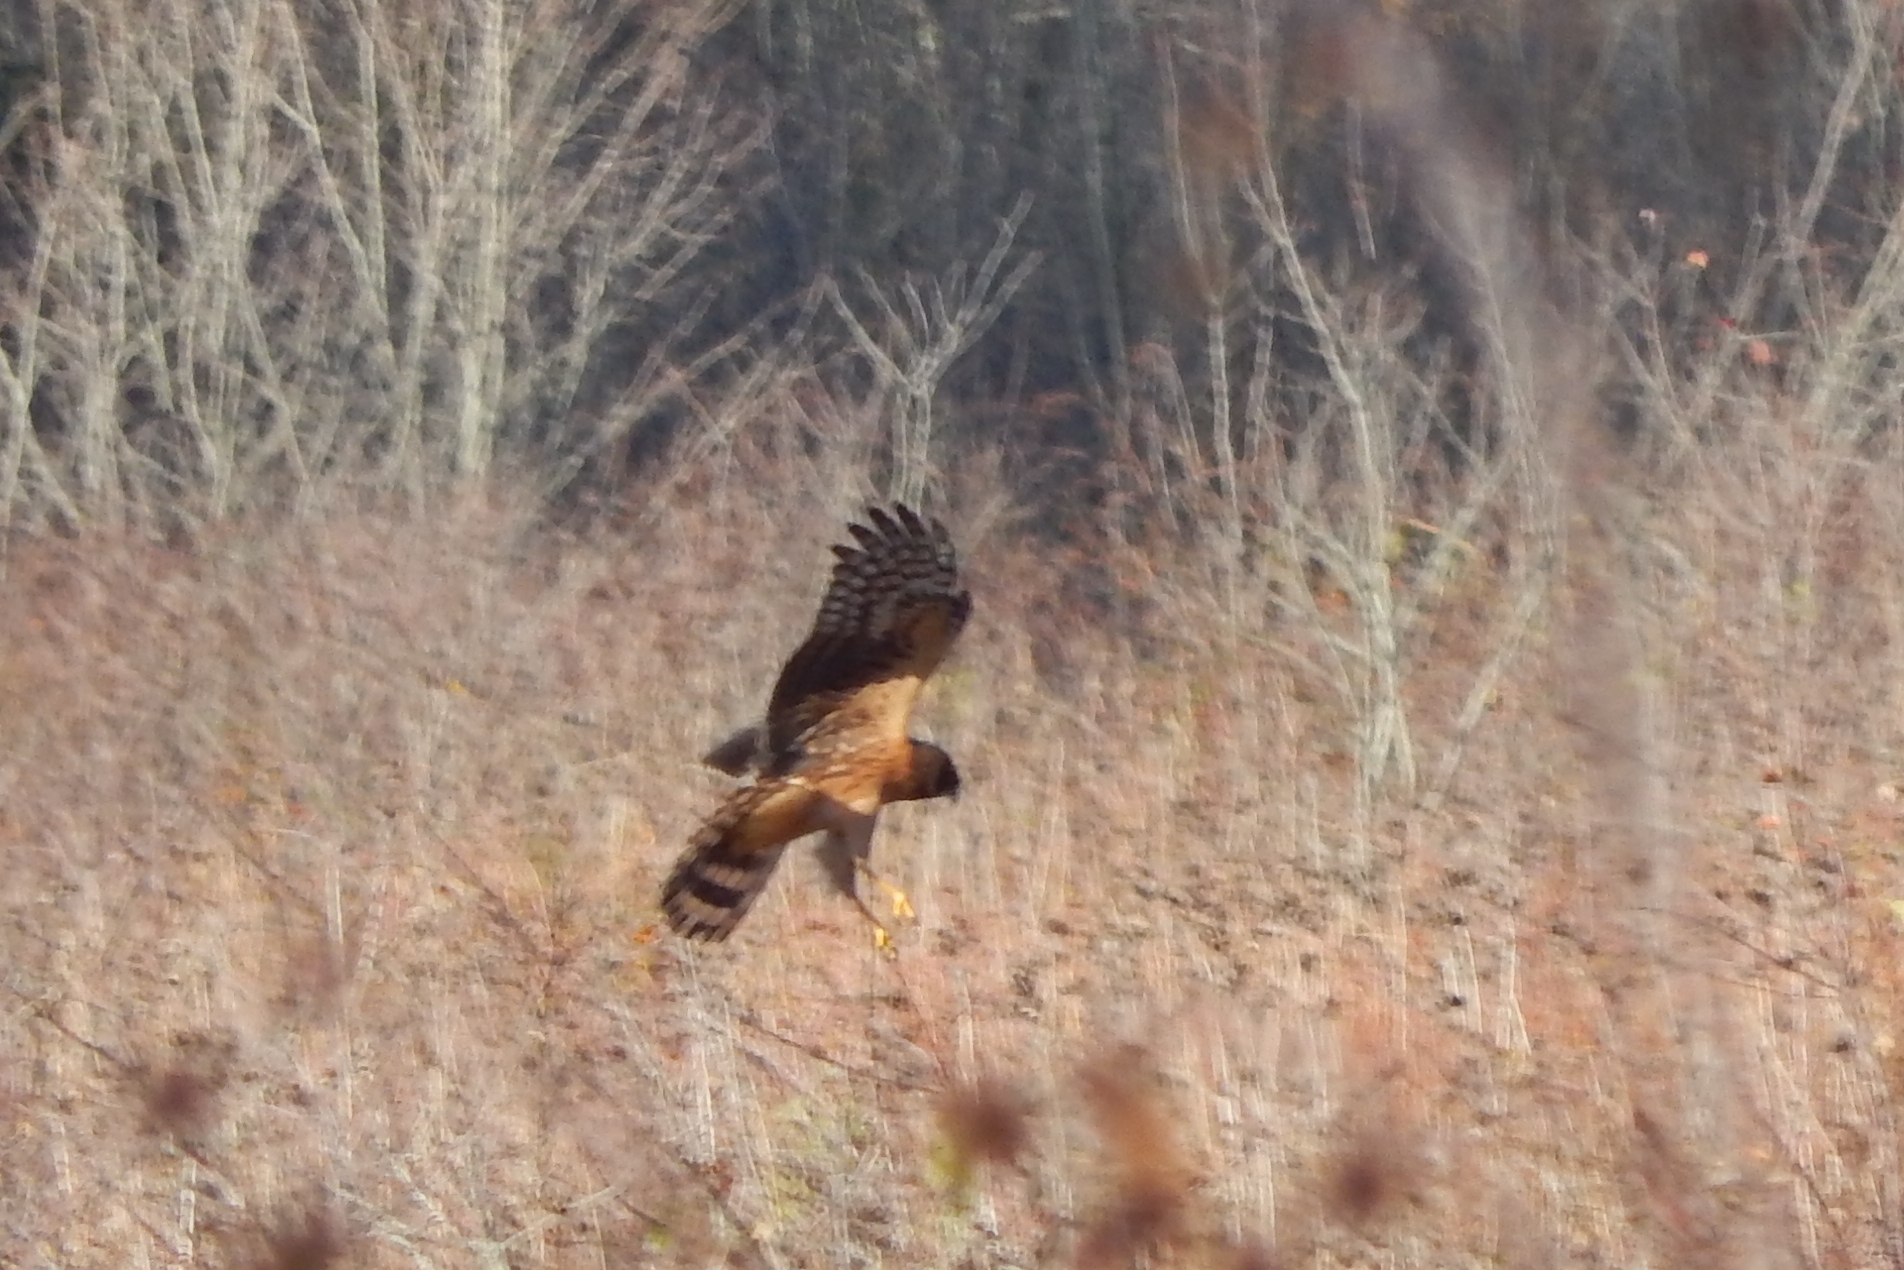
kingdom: Animalia
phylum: Chordata
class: Aves
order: Accipitriformes
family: Accipitridae
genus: Circus
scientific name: Circus cyaneus
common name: Hen harrier
